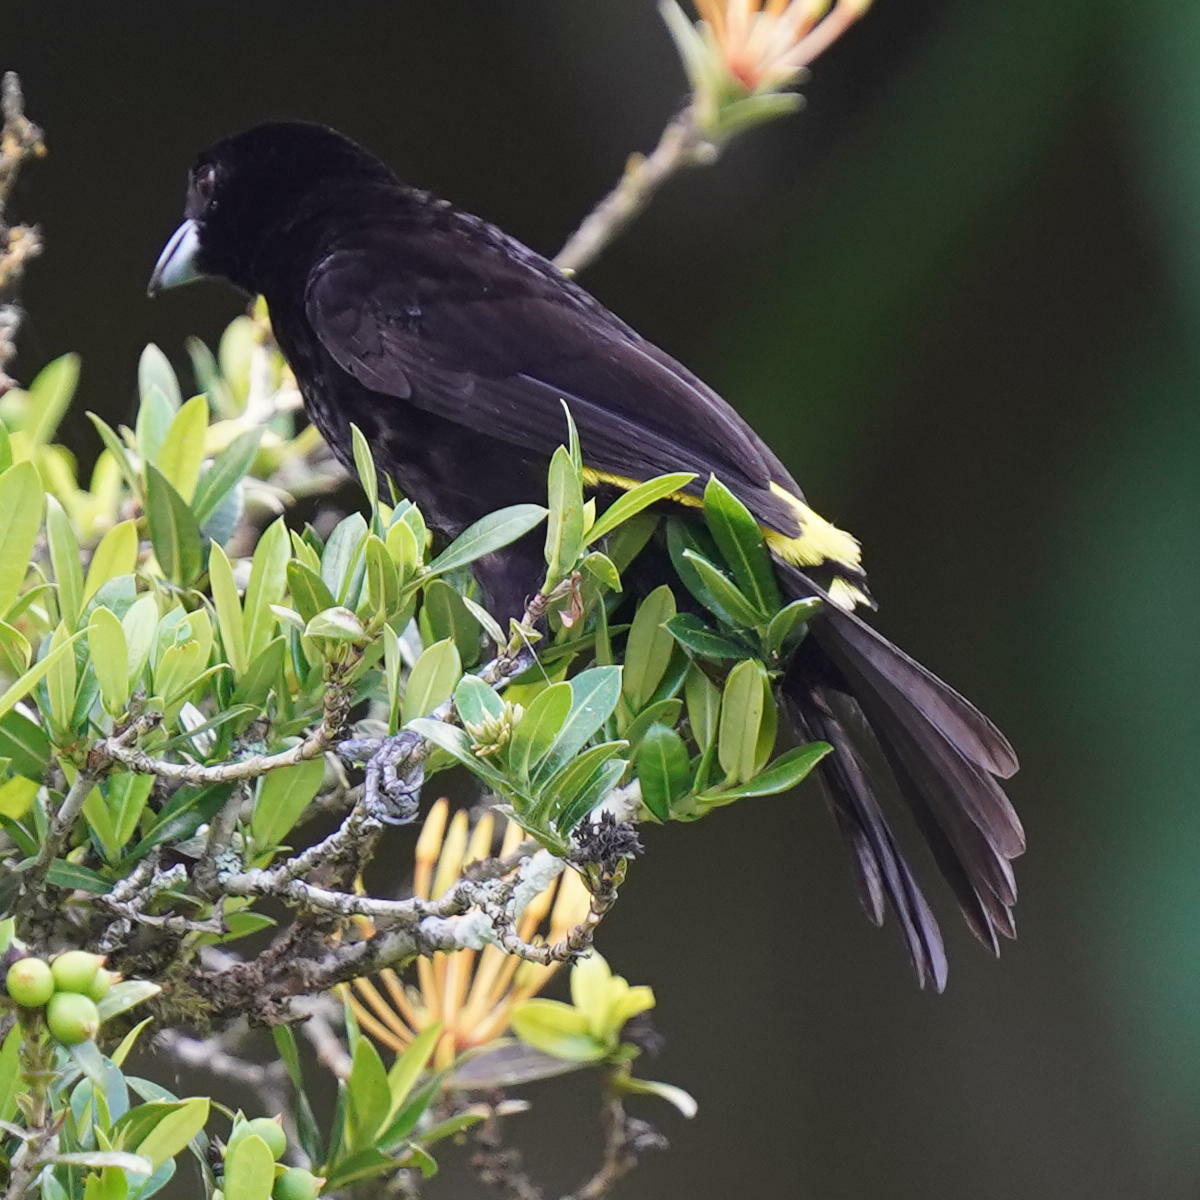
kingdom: Animalia
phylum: Chordata
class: Aves
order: Passeriformes
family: Thraupidae
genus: Ramphocelus
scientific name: Ramphocelus flammigerus
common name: Flame-rumped tanager
